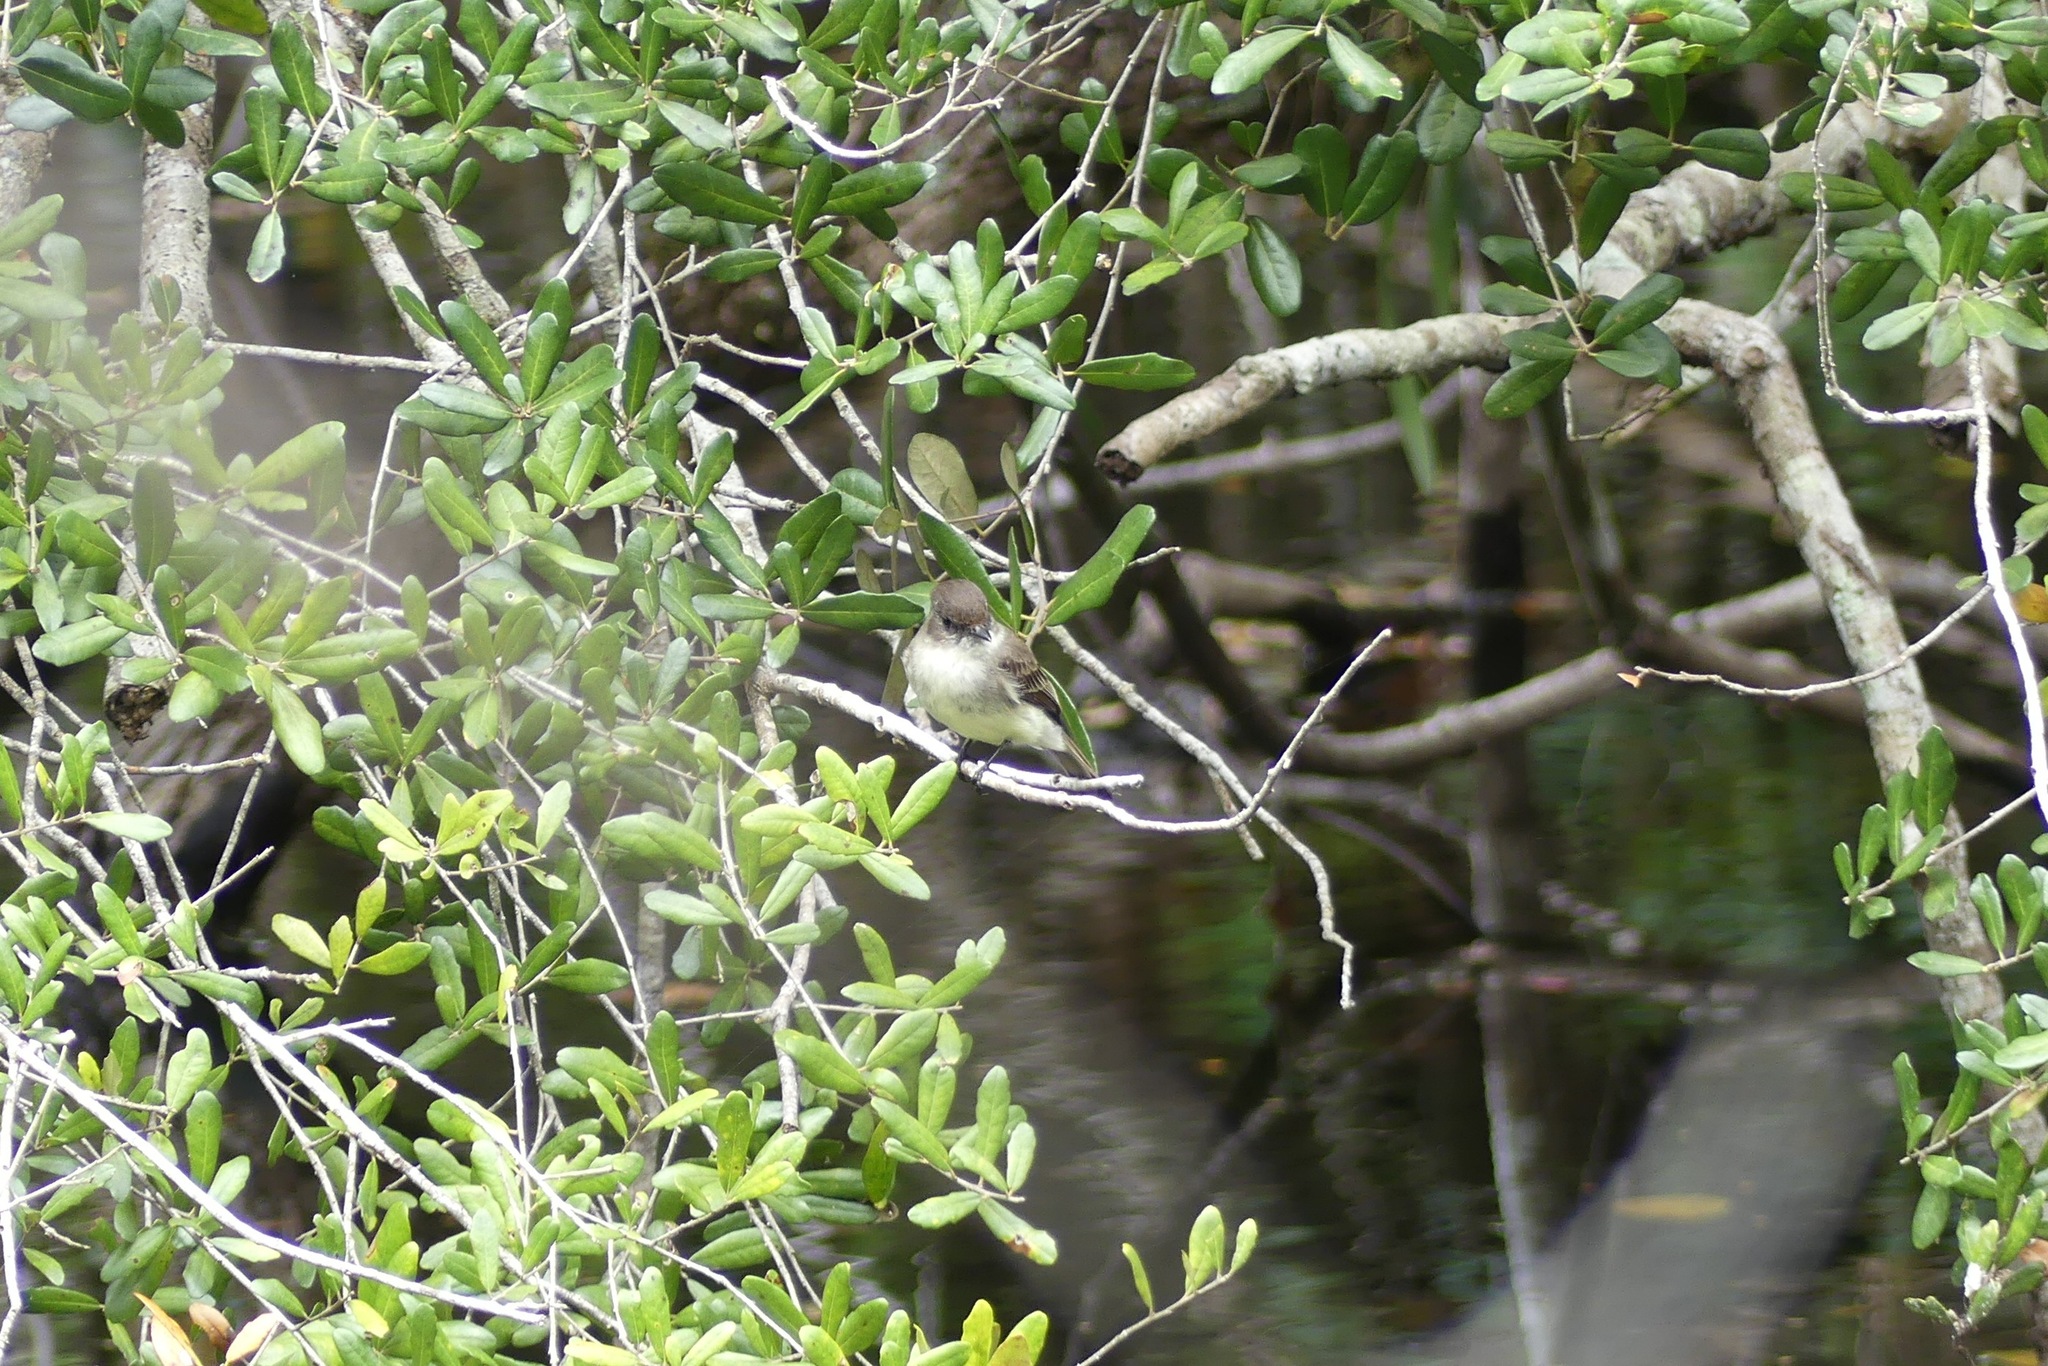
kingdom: Animalia
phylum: Chordata
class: Aves
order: Passeriformes
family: Tyrannidae
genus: Sayornis
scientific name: Sayornis phoebe
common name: Eastern phoebe
